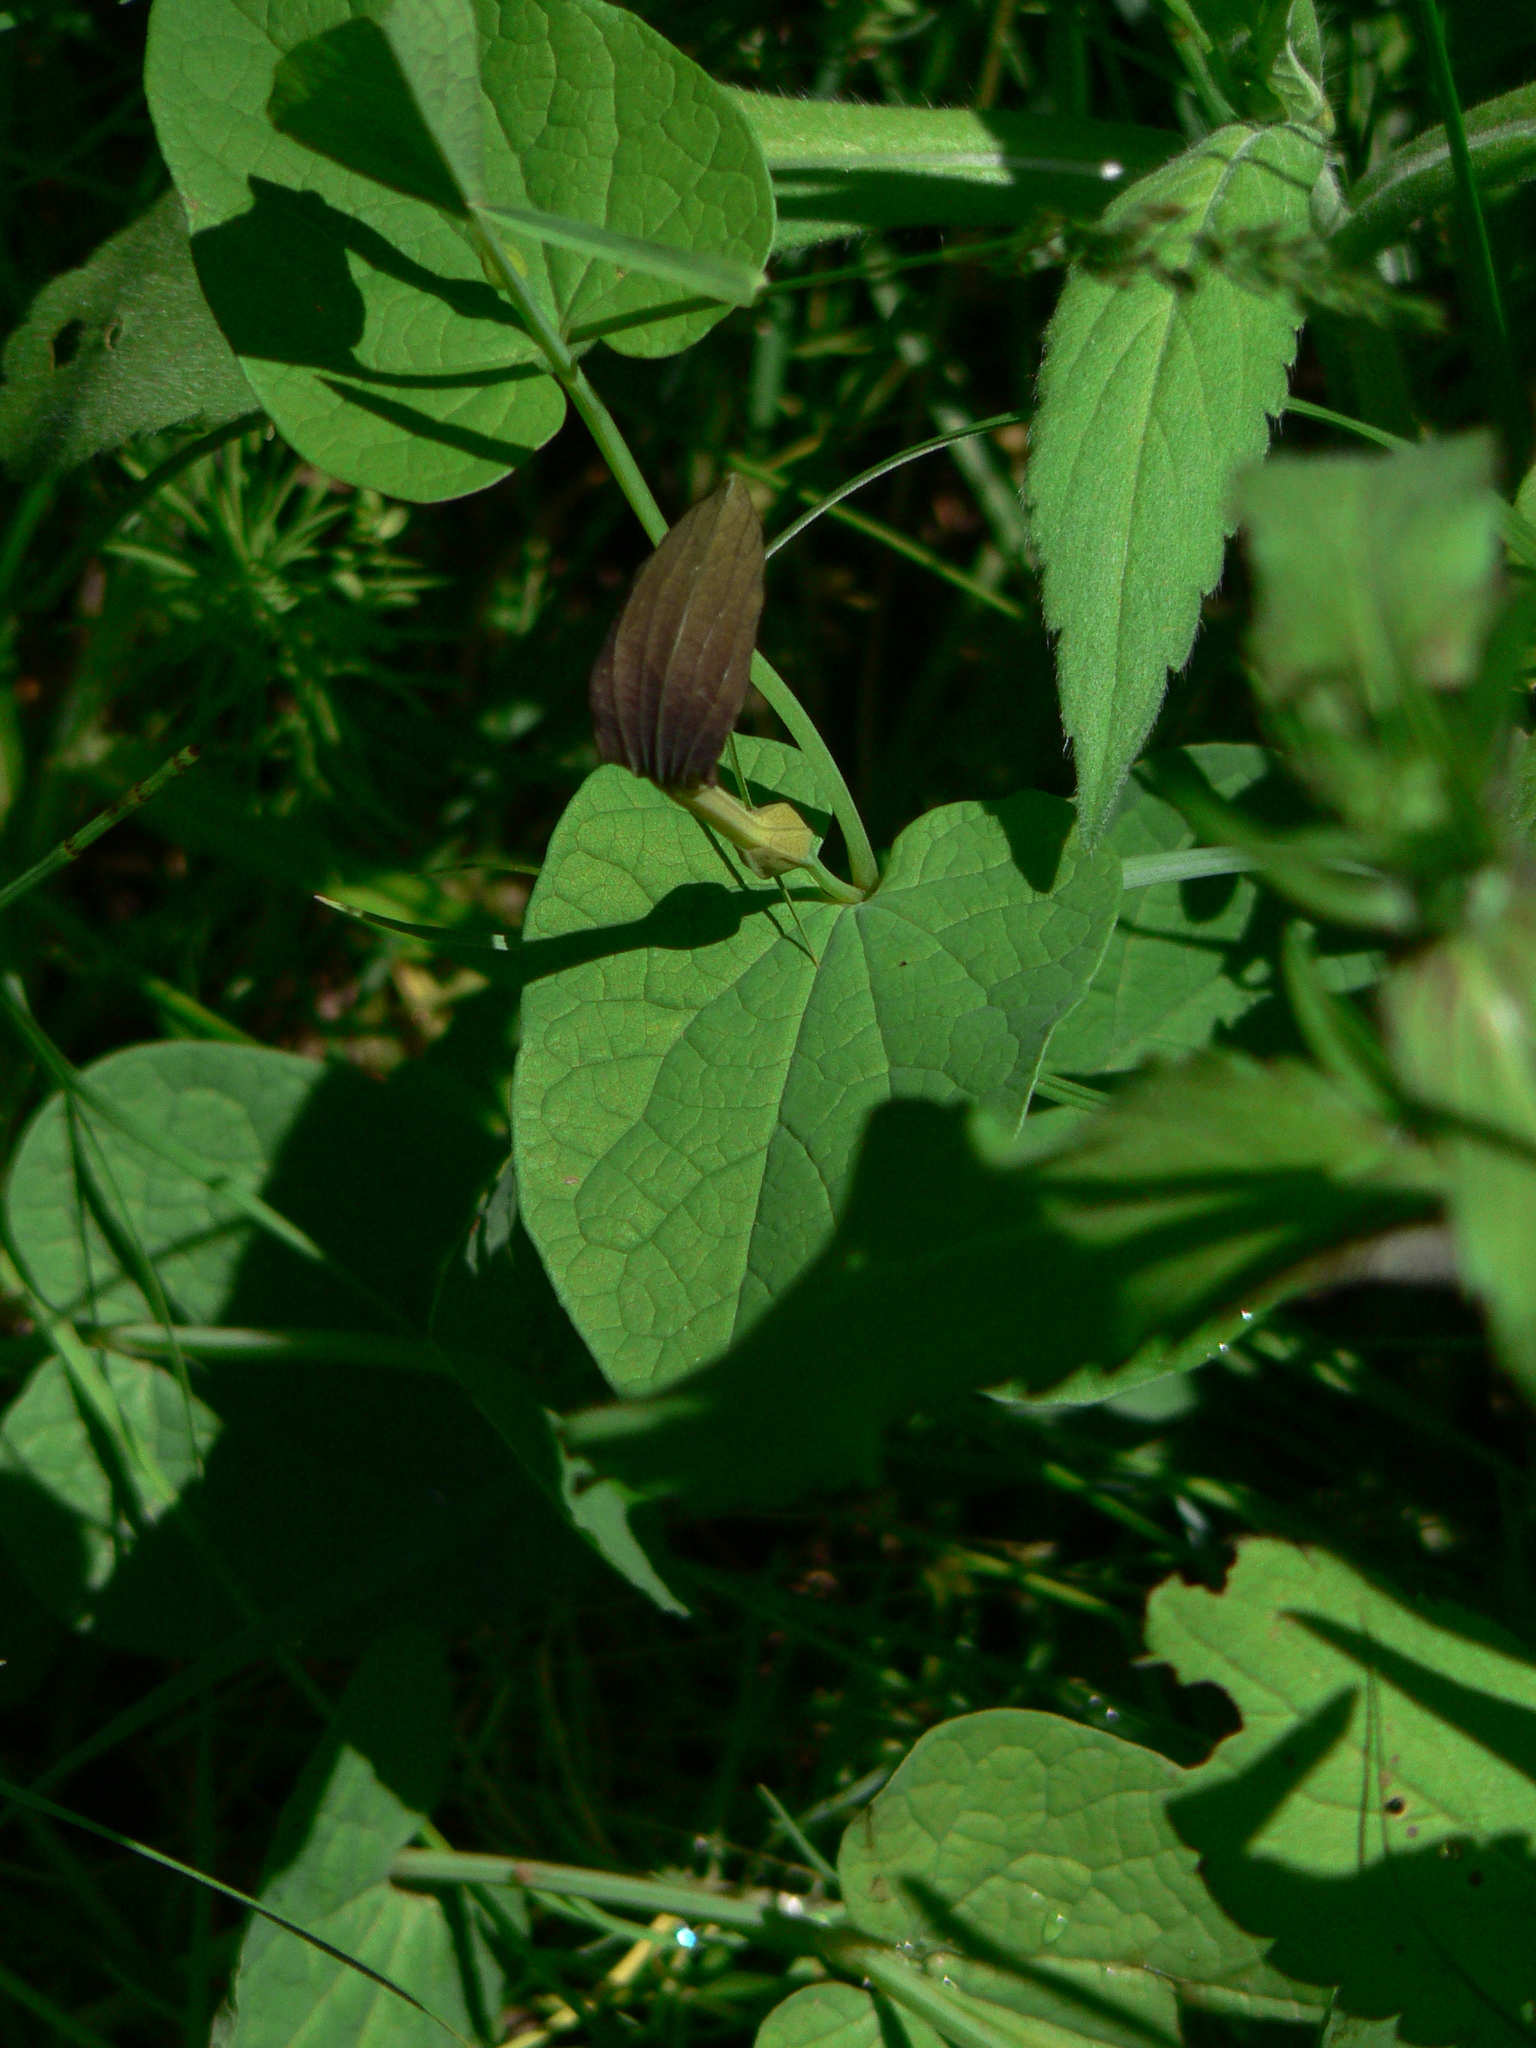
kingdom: Plantae
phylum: Tracheophyta
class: Magnoliopsida
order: Piperales
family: Aristolochiaceae
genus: Aristolochia
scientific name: Aristolochia rotunda
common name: Smearwort
